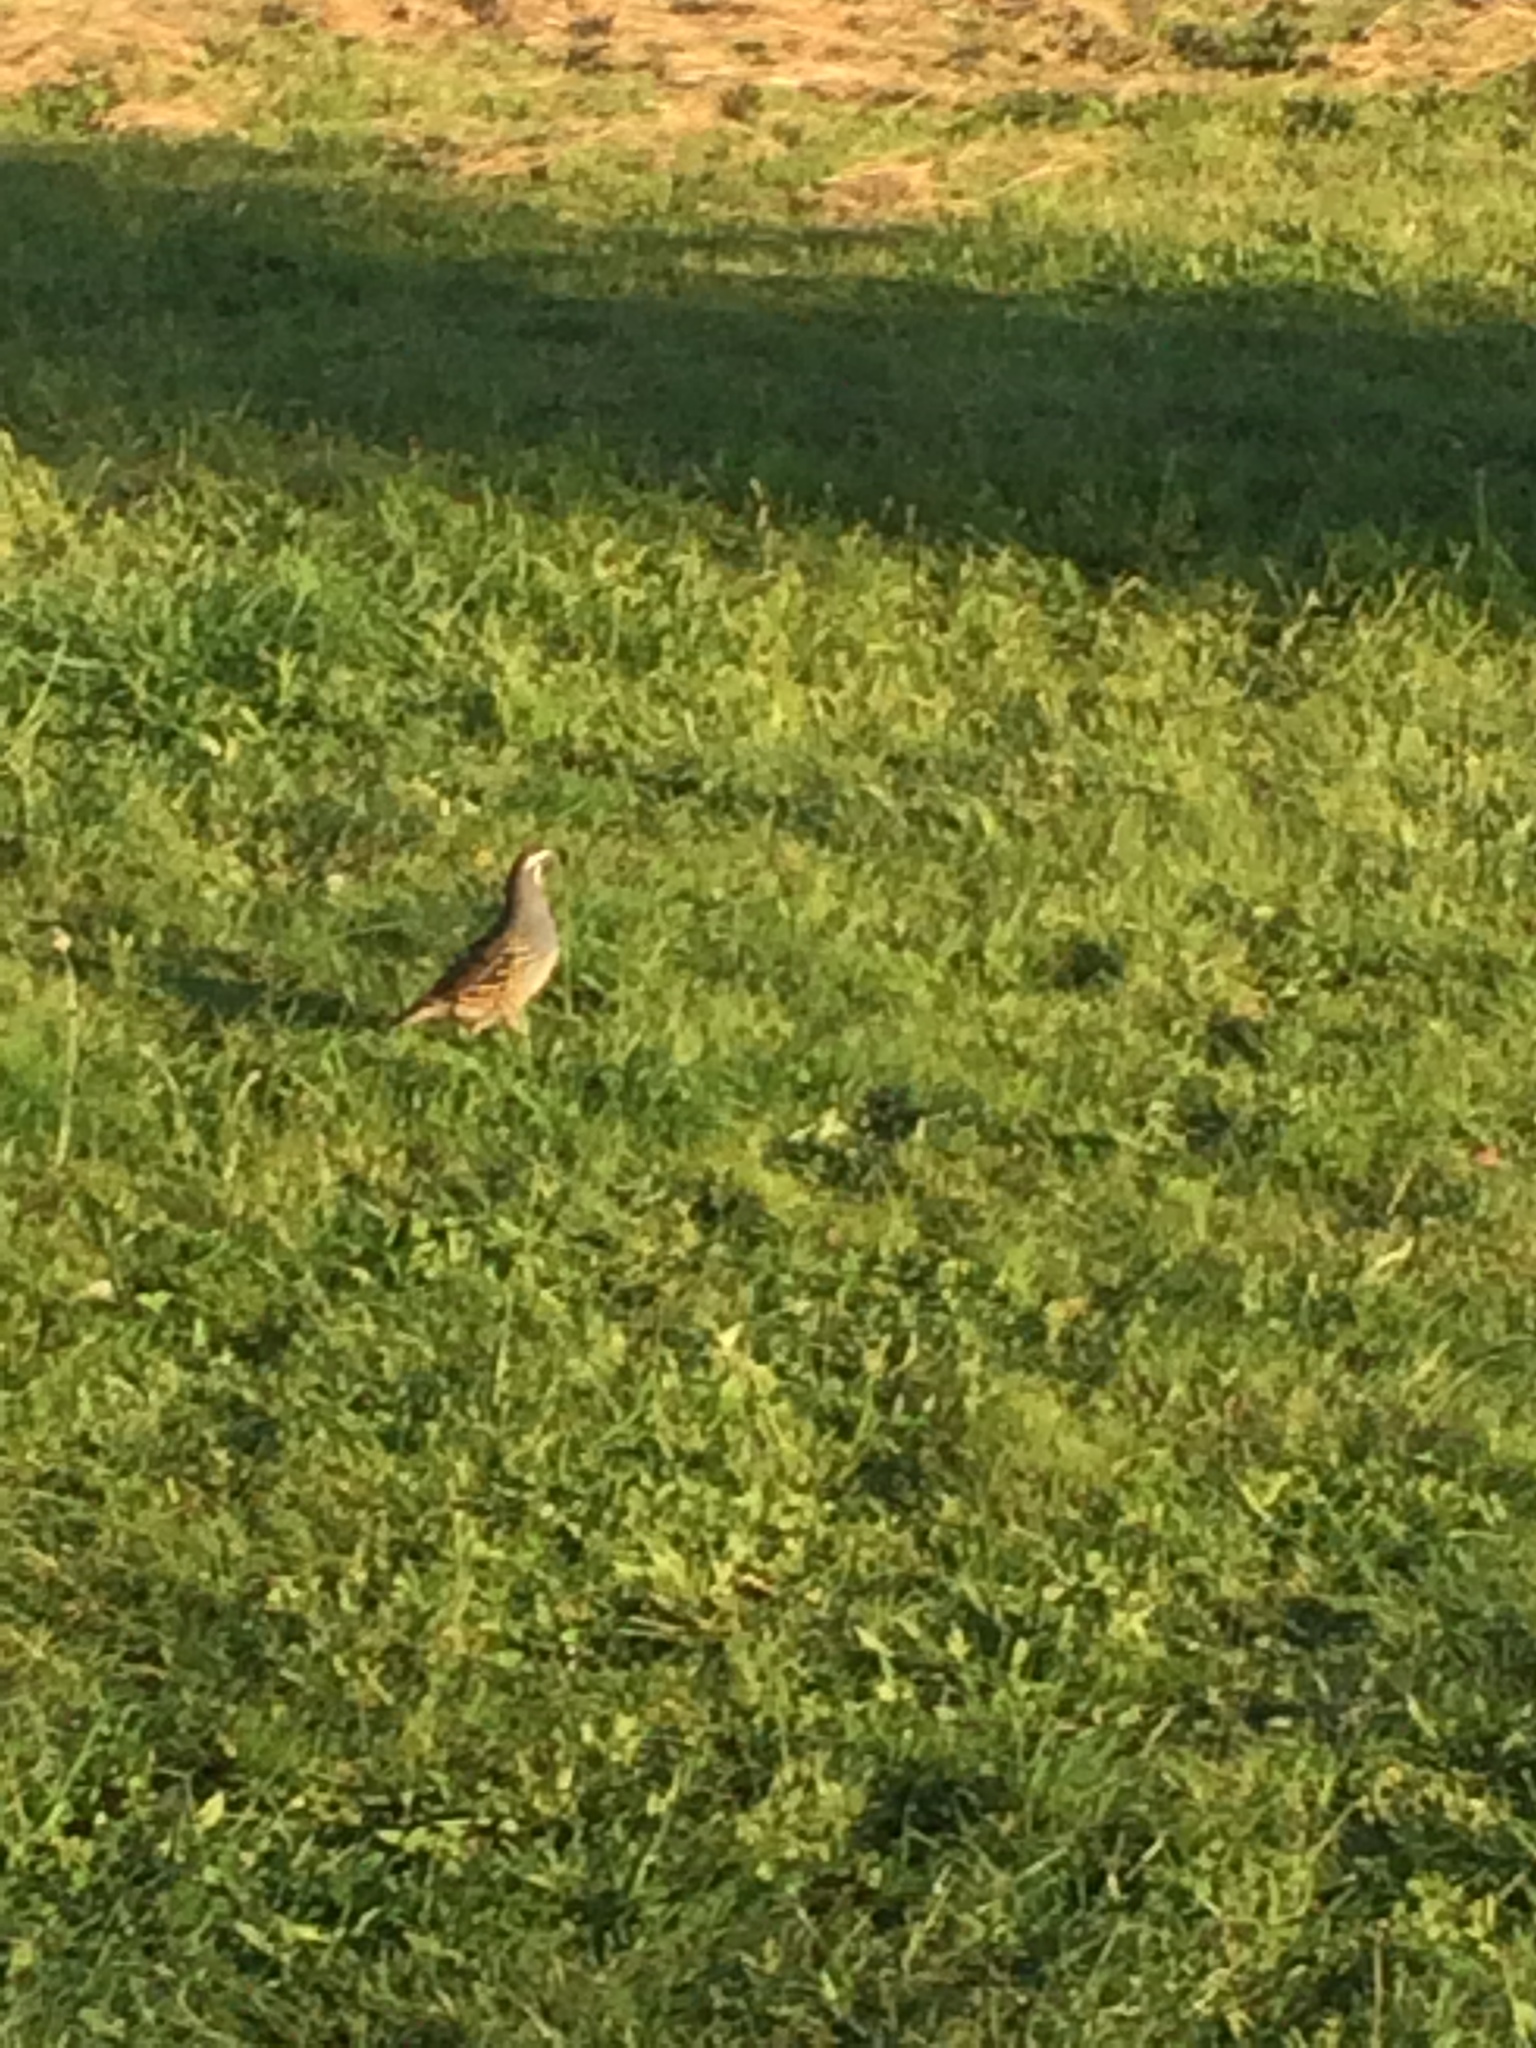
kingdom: Animalia
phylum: Chordata
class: Aves
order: Galliformes
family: Odontophoridae
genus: Callipepla
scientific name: Callipepla californica
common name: California quail
